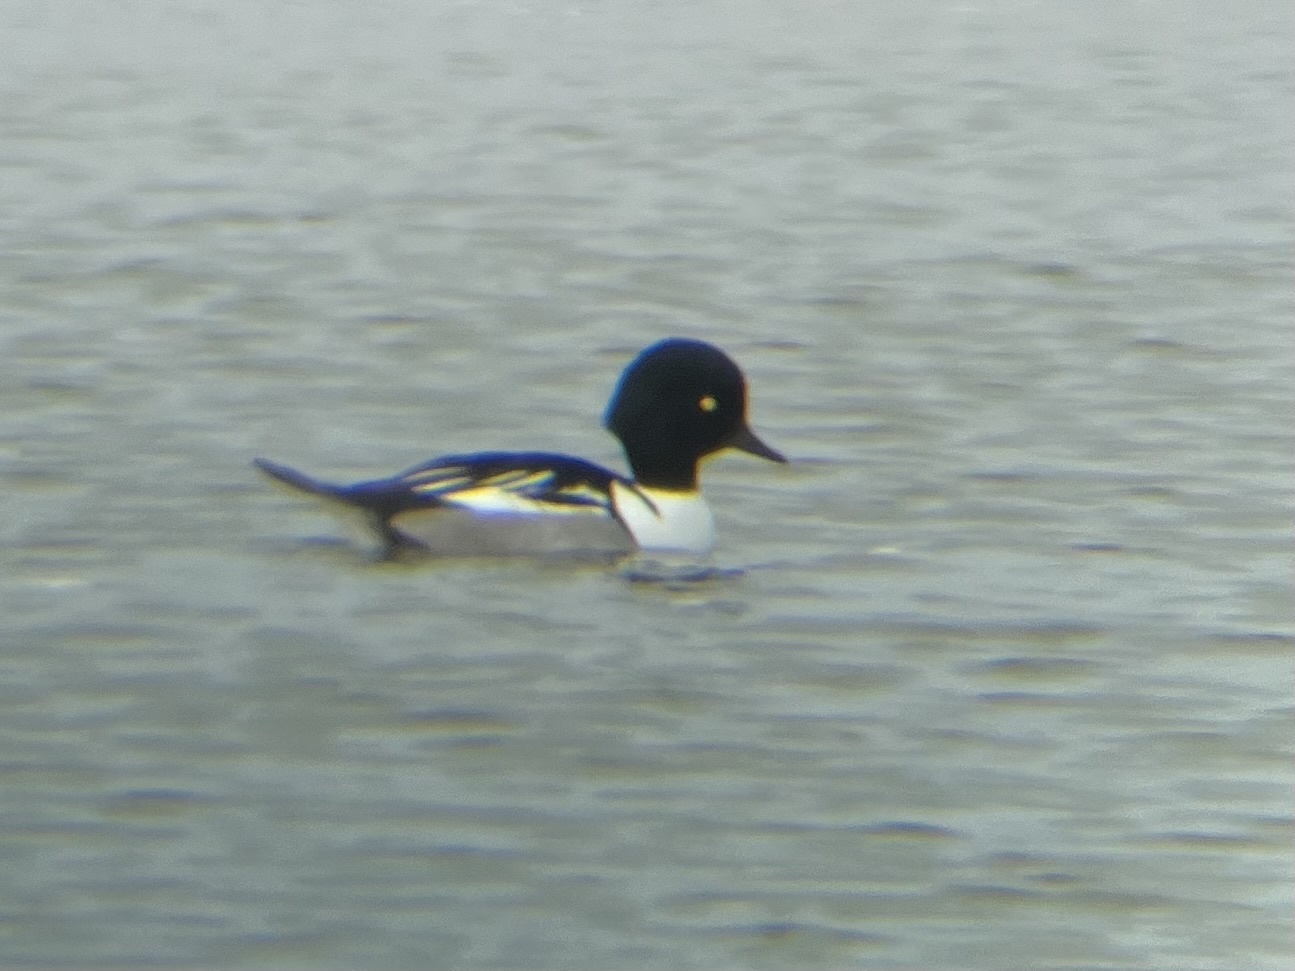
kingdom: Animalia
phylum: Chordata
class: Aves
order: Anseriformes
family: Anatidae
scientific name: Anatidae
